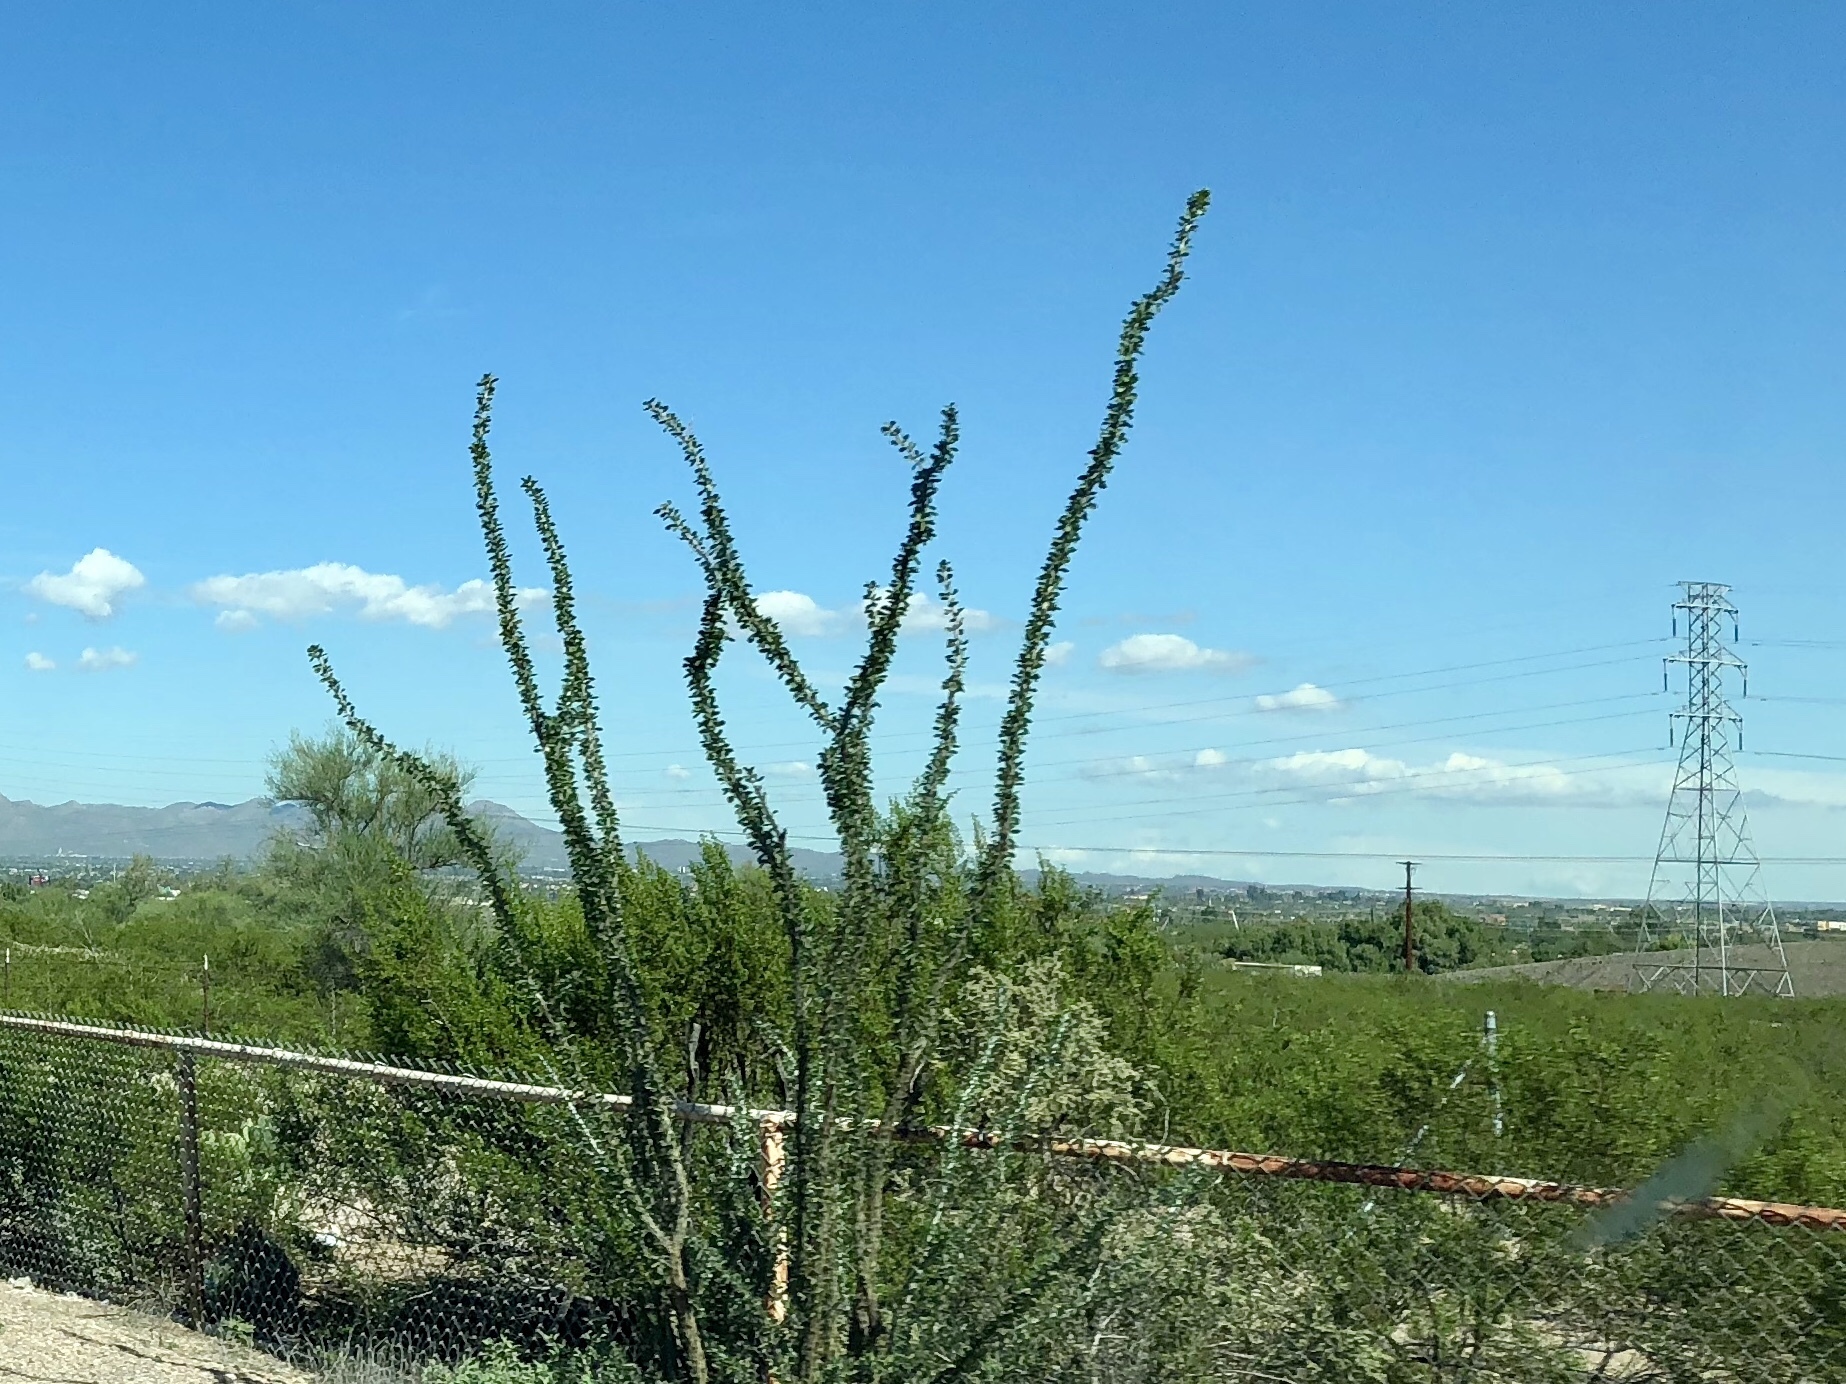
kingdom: Plantae
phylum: Tracheophyta
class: Magnoliopsida
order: Ericales
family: Fouquieriaceae
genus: Fouquieria
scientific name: Fouquieria splendens
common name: Vine-cactus
